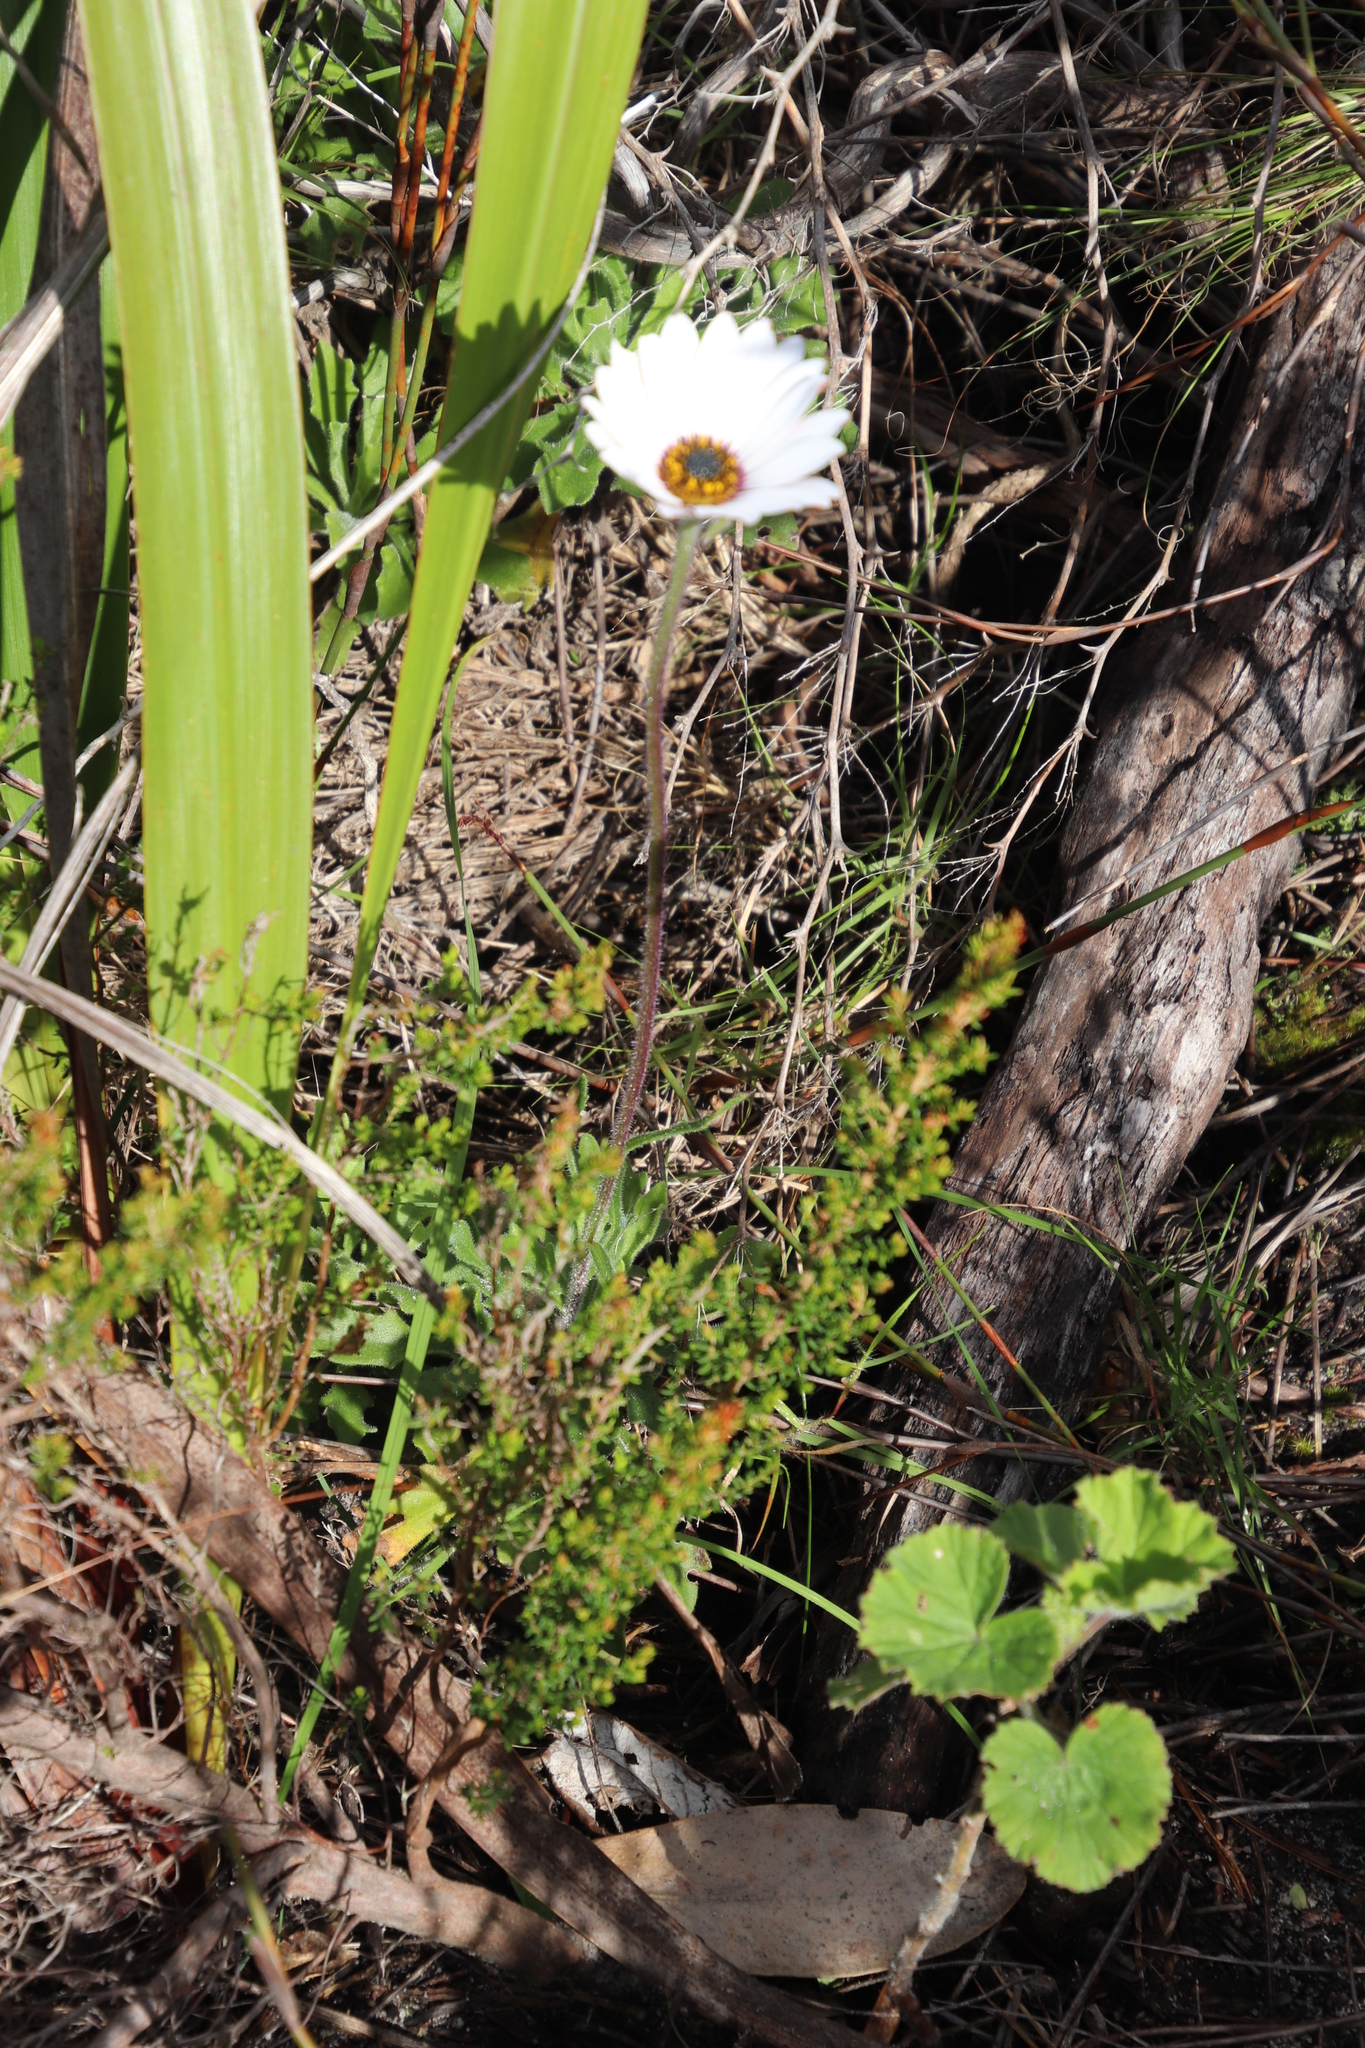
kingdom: Plantae
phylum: Tracheophyta
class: Magnoliopsida
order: Asterales
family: Asteraceae
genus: Dimorphotheca
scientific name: Dimorphotheca nudicaulis
